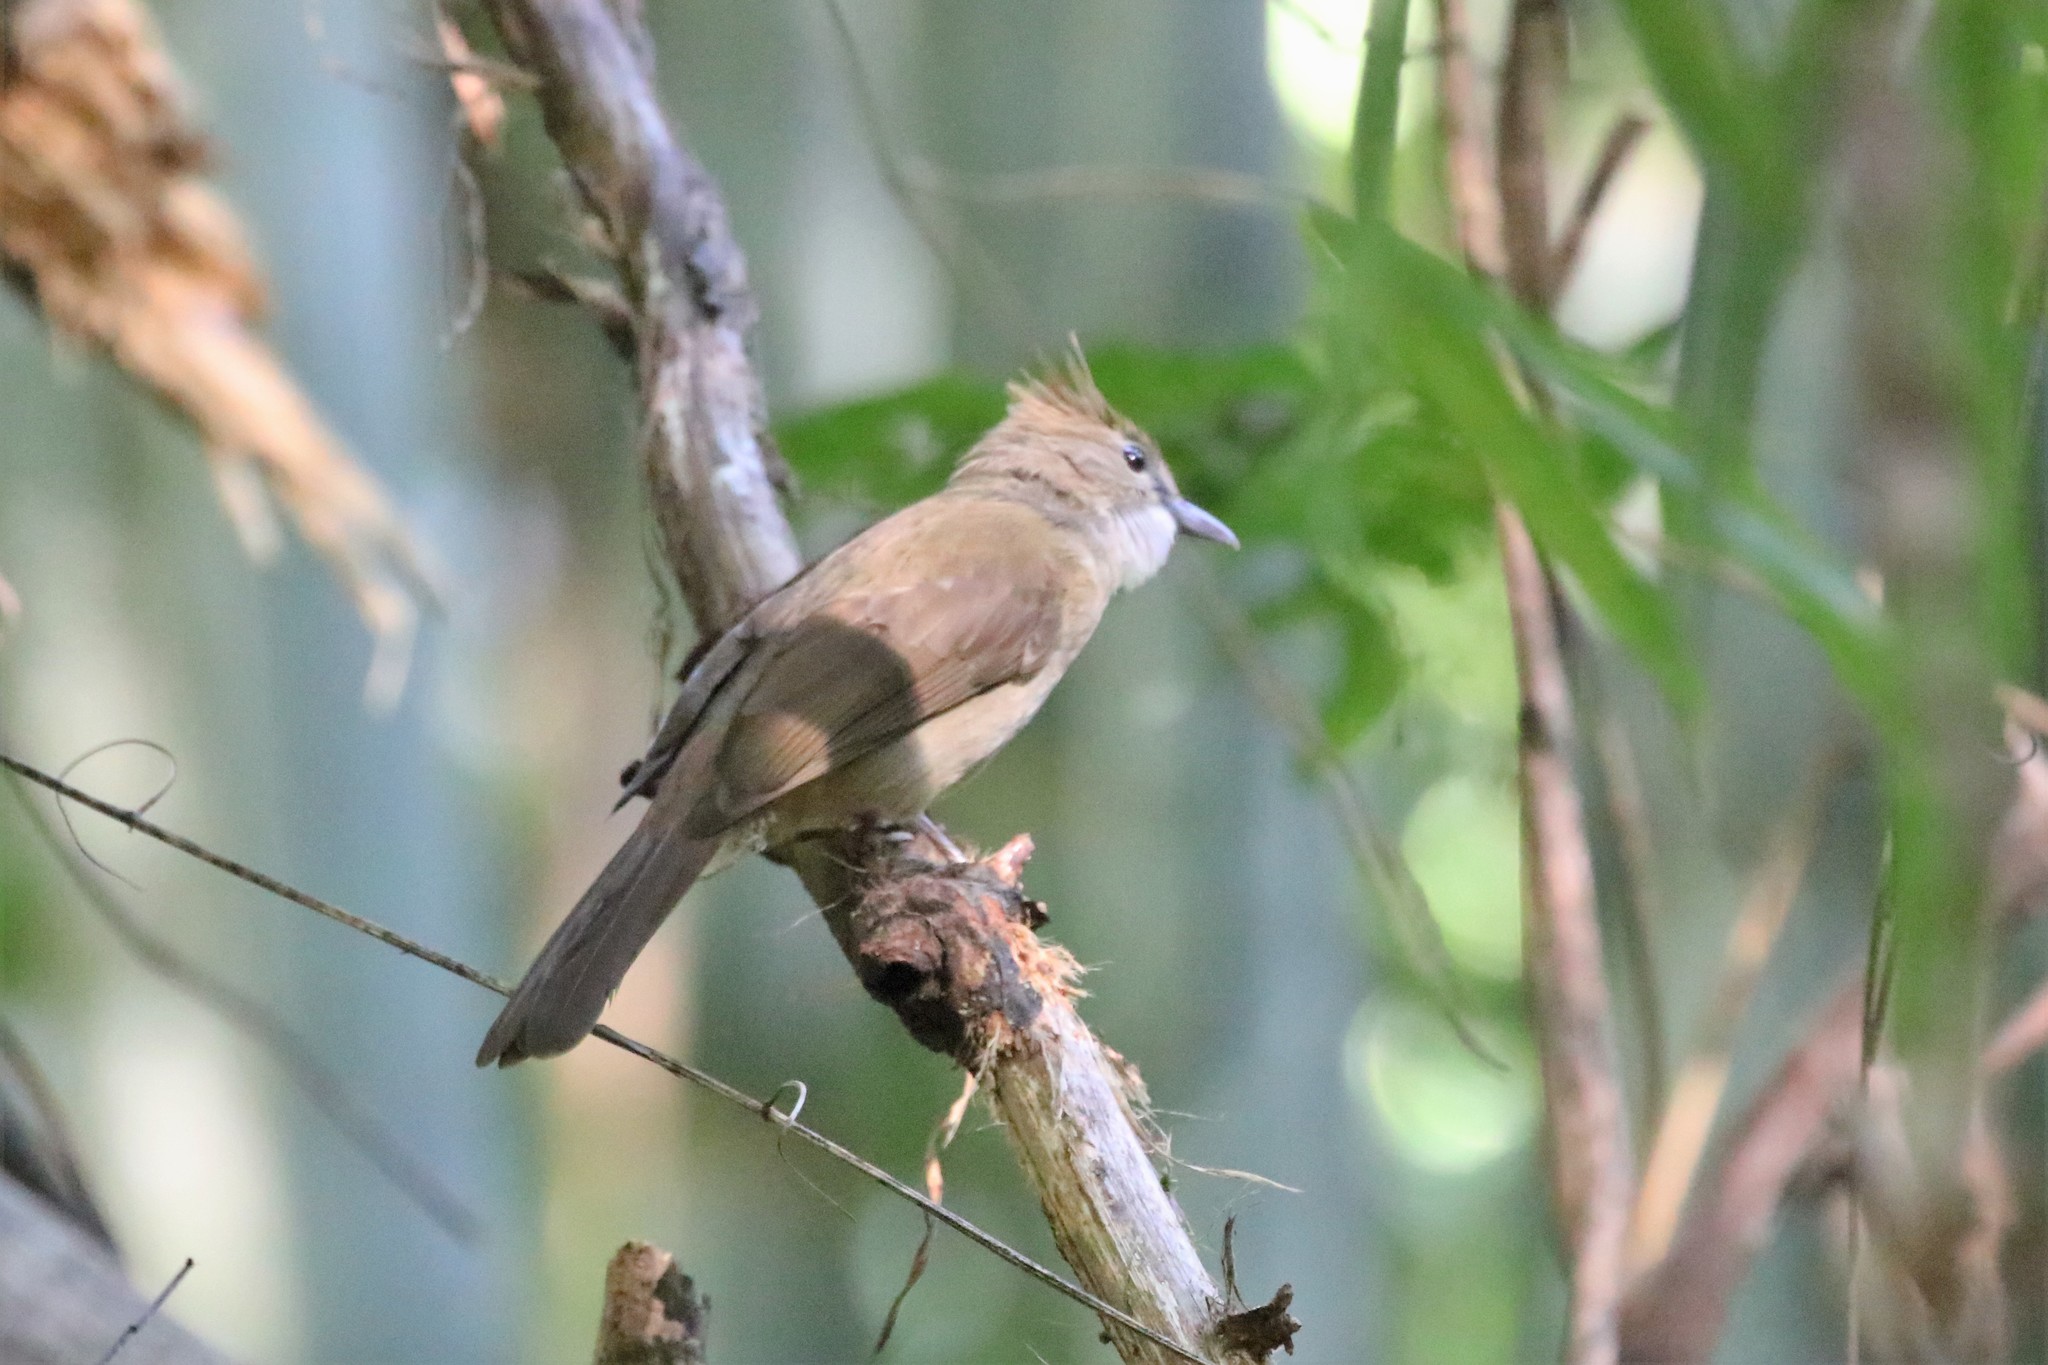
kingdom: Animalia
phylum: Chordata
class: Aves
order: Passeriformes
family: Pycnonotidae
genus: Alophoixus
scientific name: Alophoixus ochraceus
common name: Ochraceous bulbul
